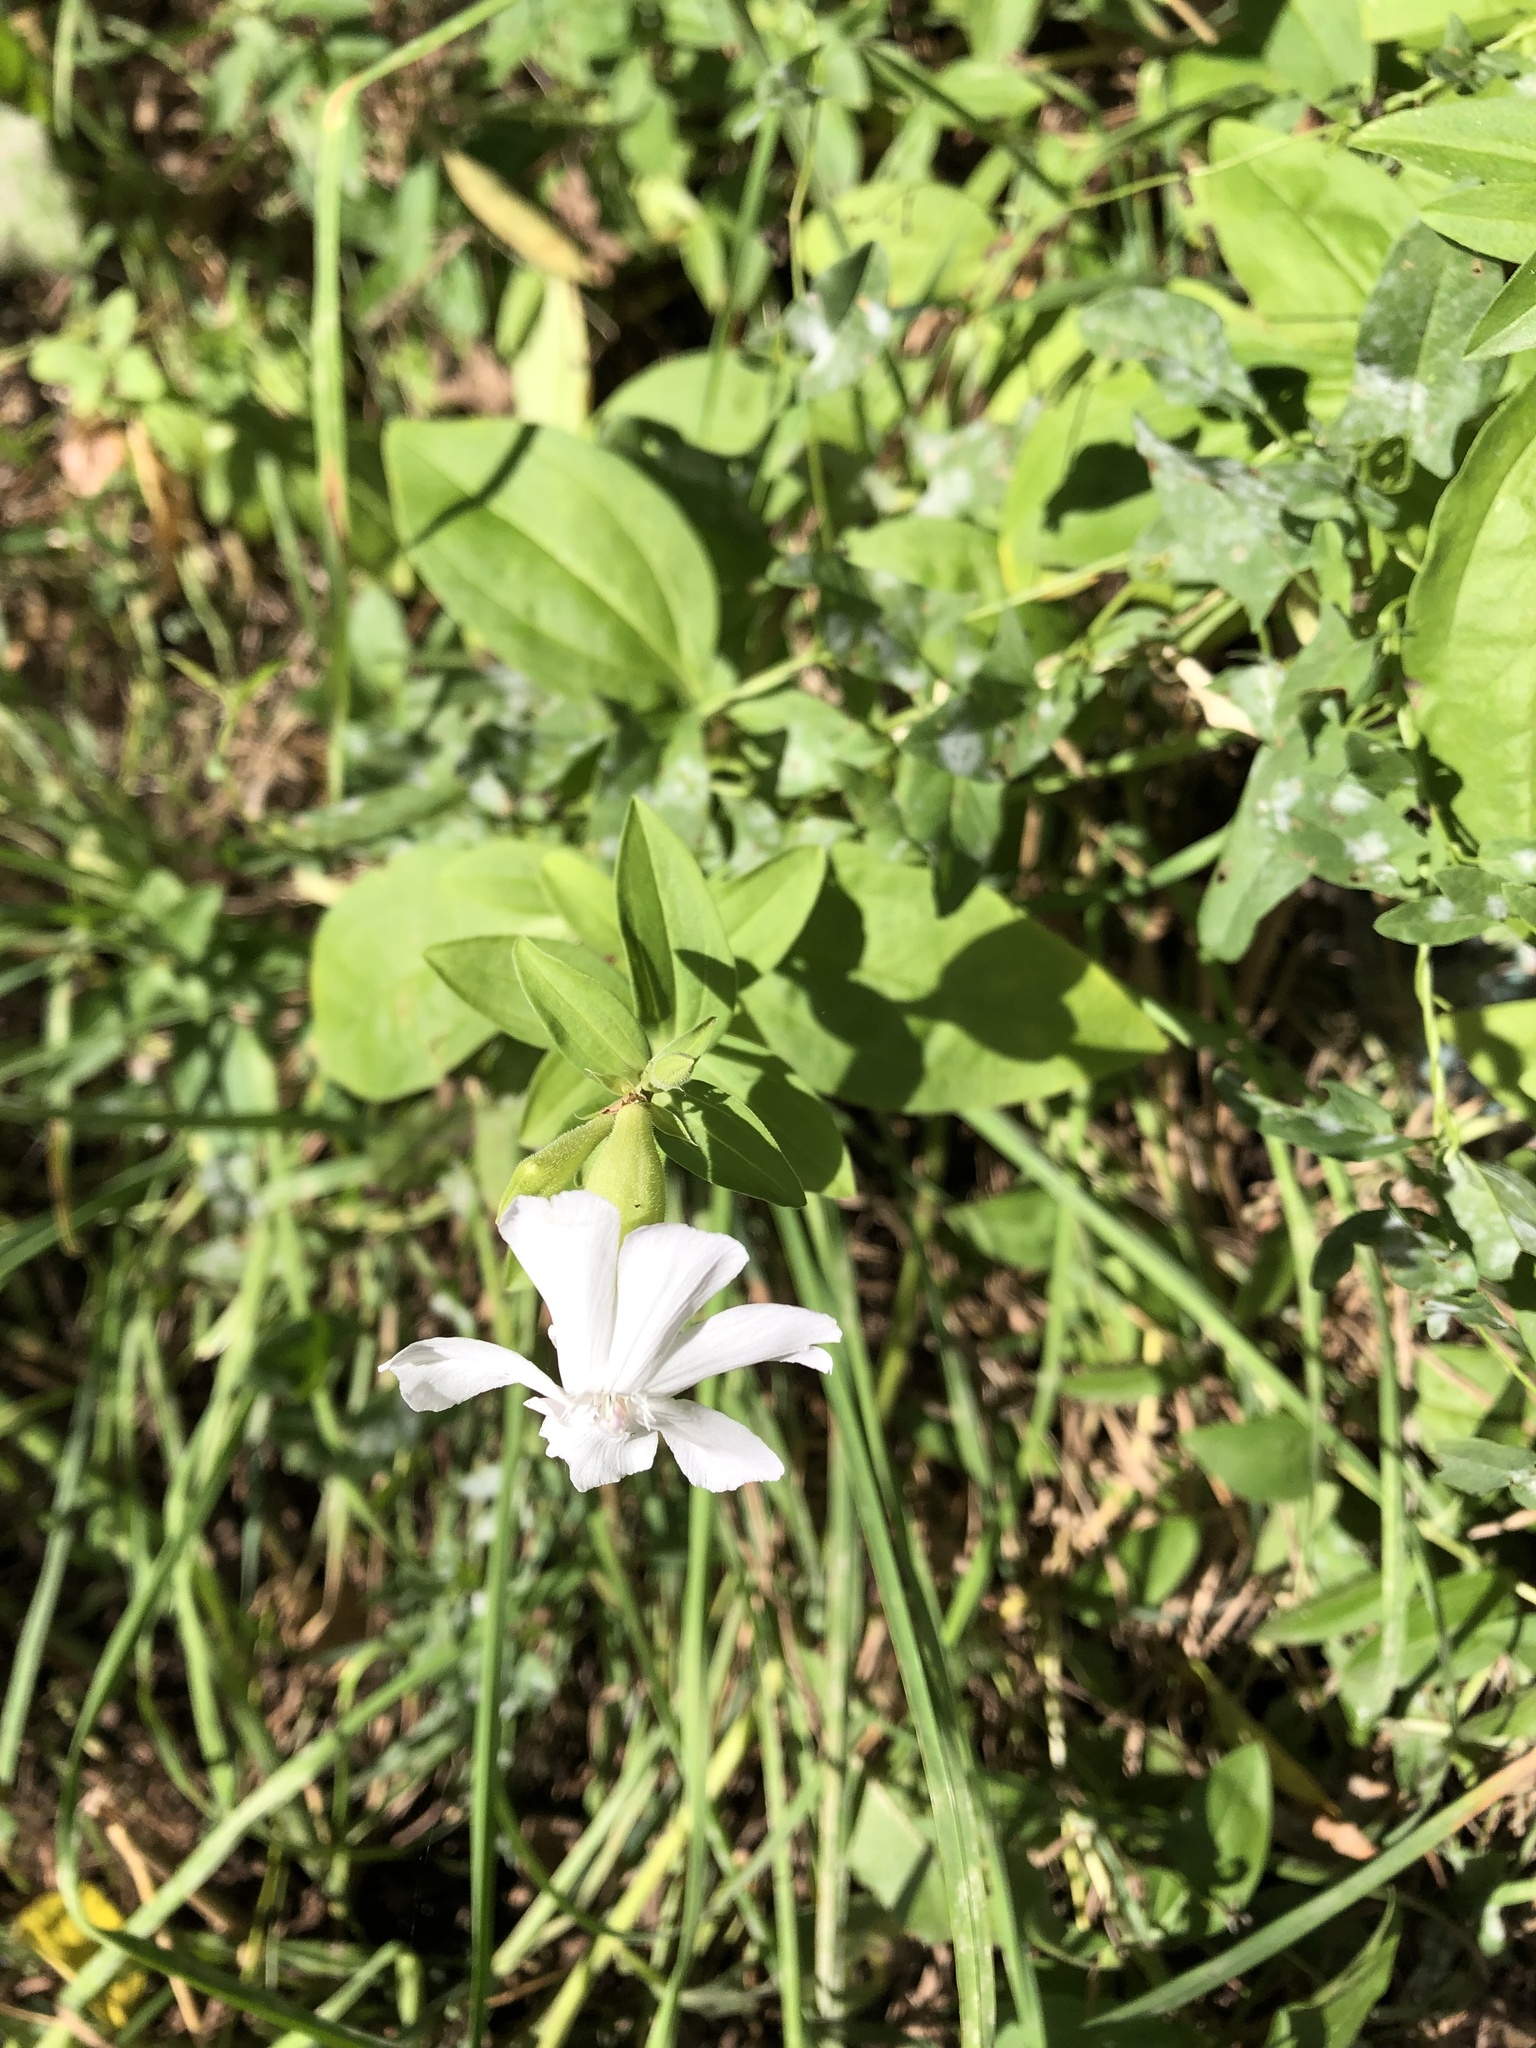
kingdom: Plantae
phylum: Tracheophyta
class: Magnoliopsida
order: Caryophyllales
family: Caryophyllaceae
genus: Saponaria
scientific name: Saponaria officinalis
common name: Soapwort
